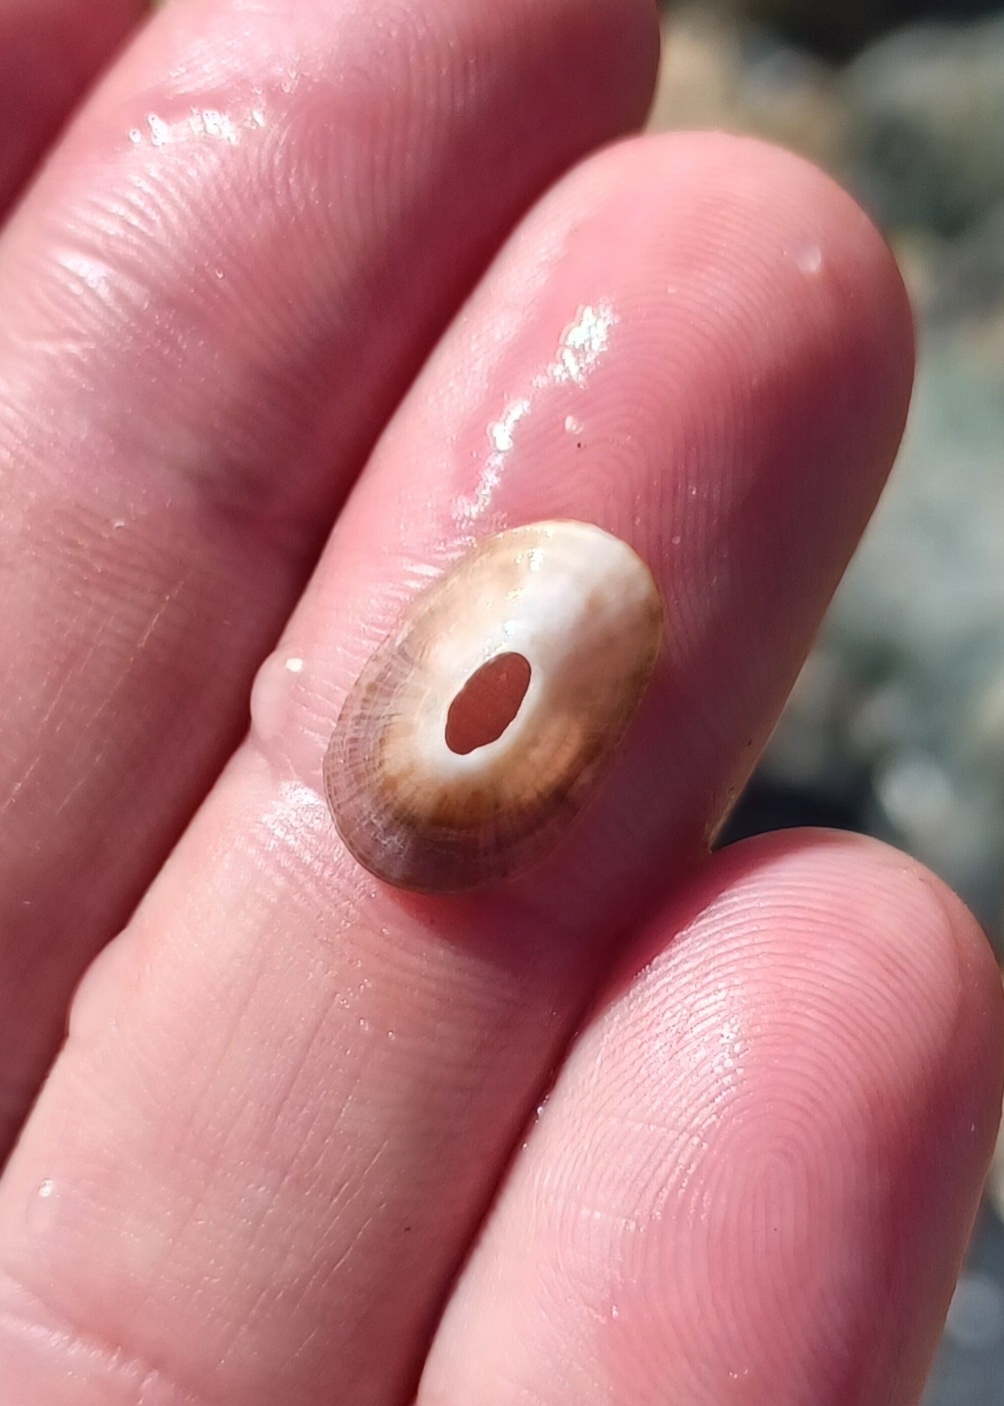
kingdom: Animalia
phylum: Mollusca
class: Gastropoda
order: Lepetellida
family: Fissurellidae
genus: Amblychilepas
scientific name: Amblychilepas nigrita
